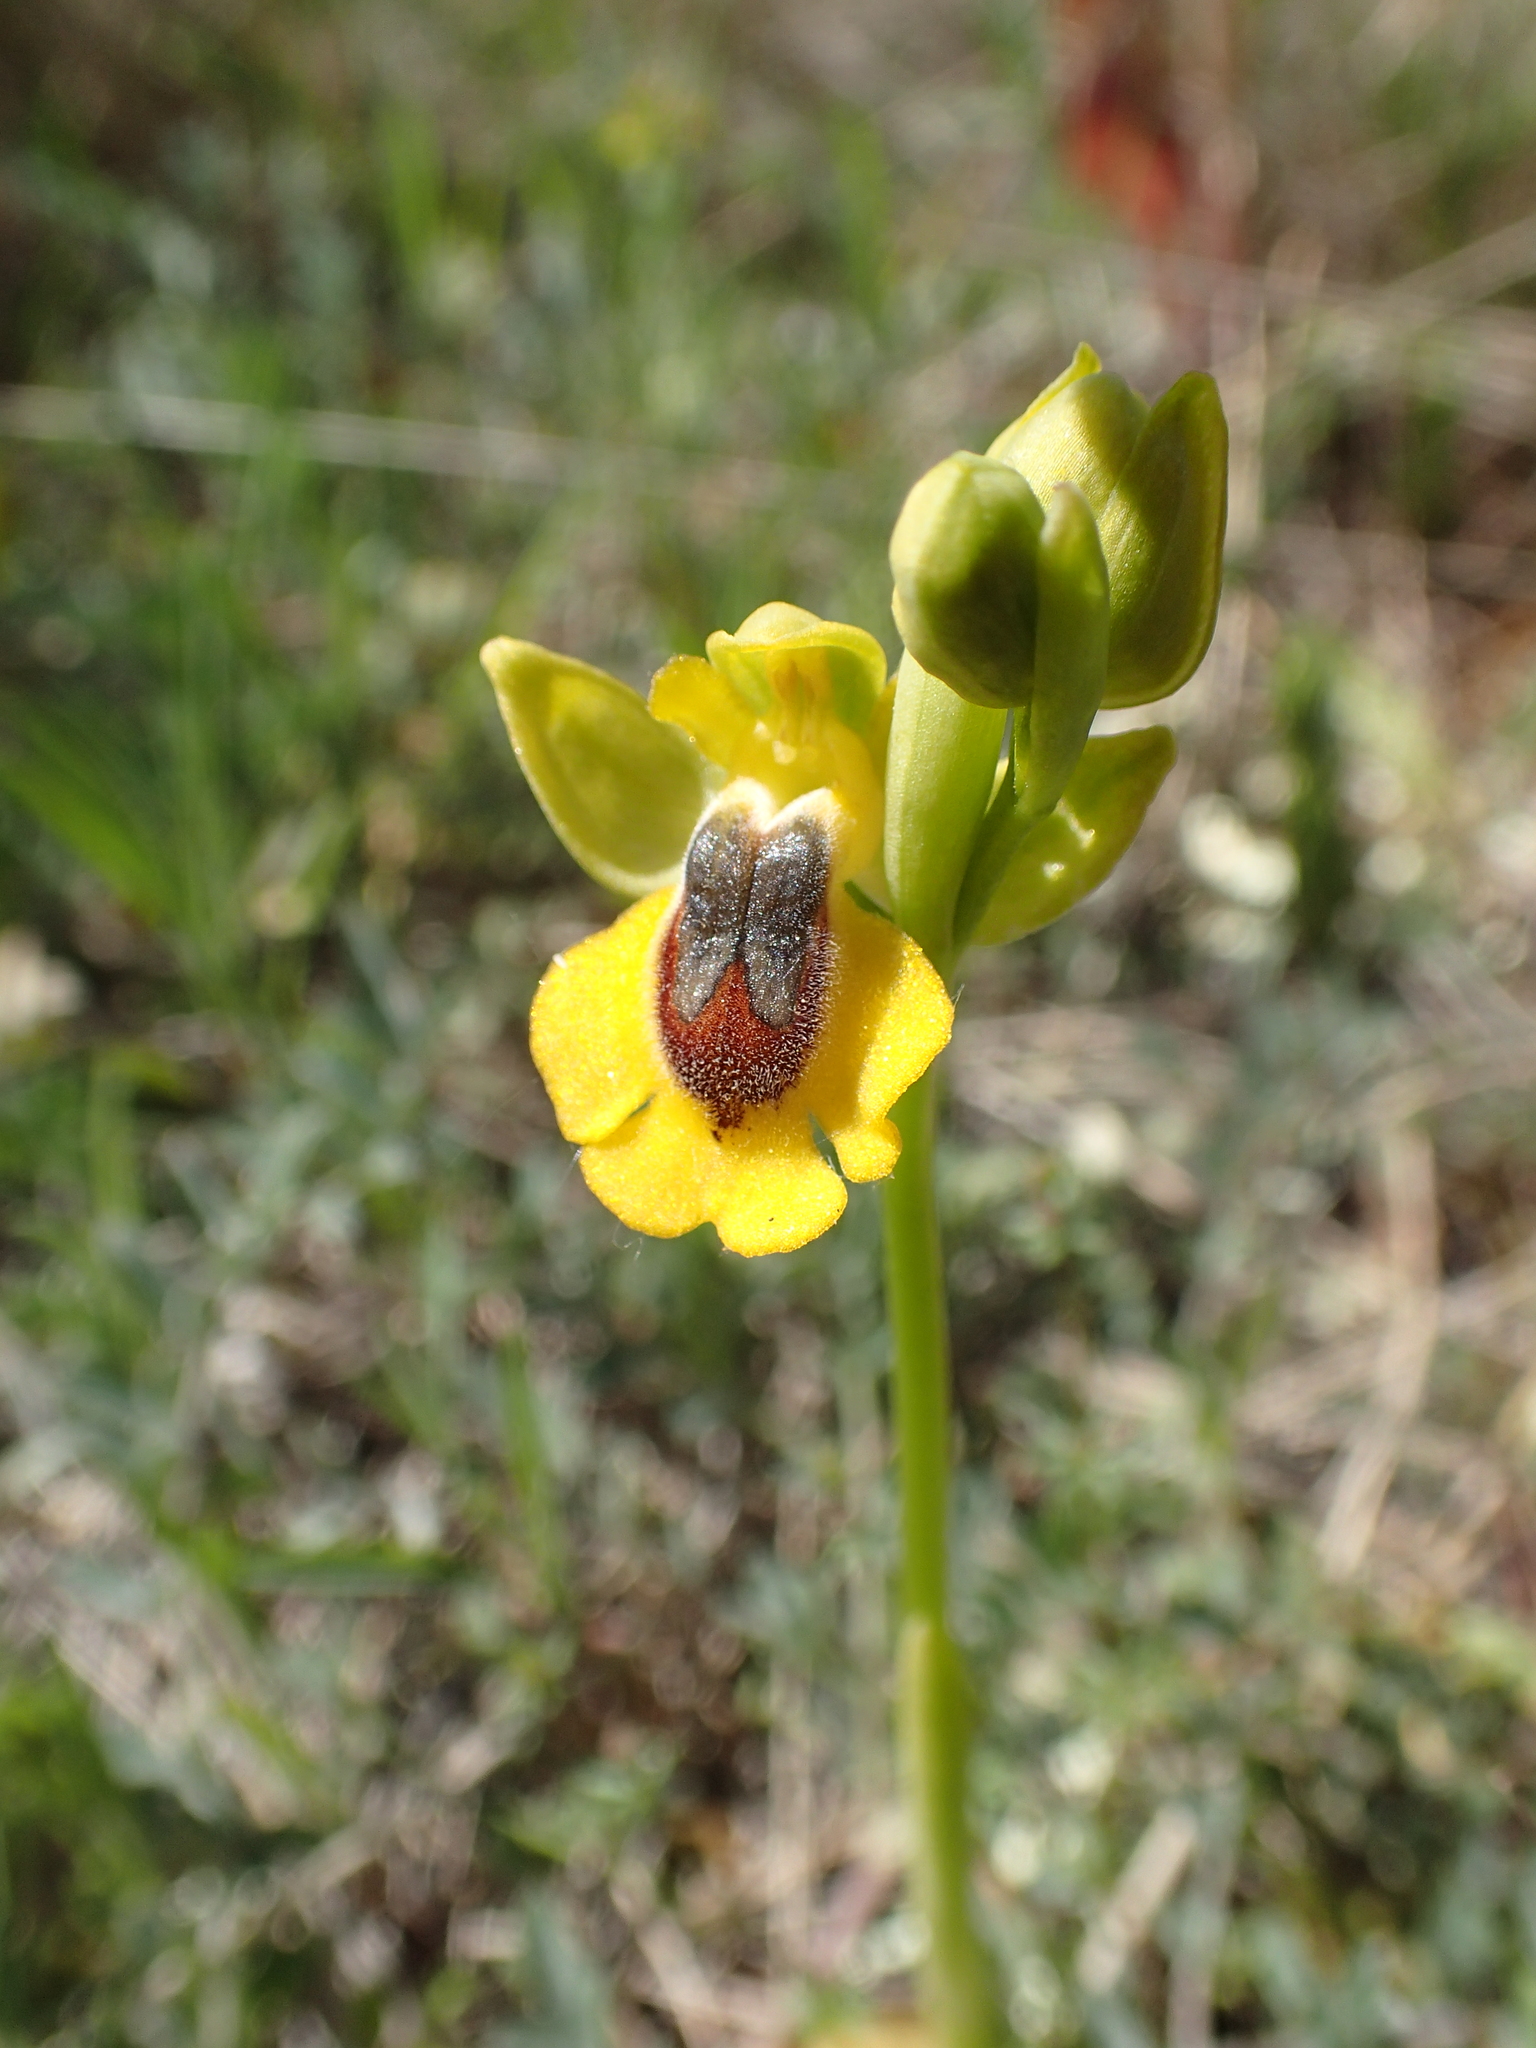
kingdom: Plantae
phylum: Tracheophyta
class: Liliopsida
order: Asparagales
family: Orchidaceae
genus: Ophrys
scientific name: Ophrys lutea
